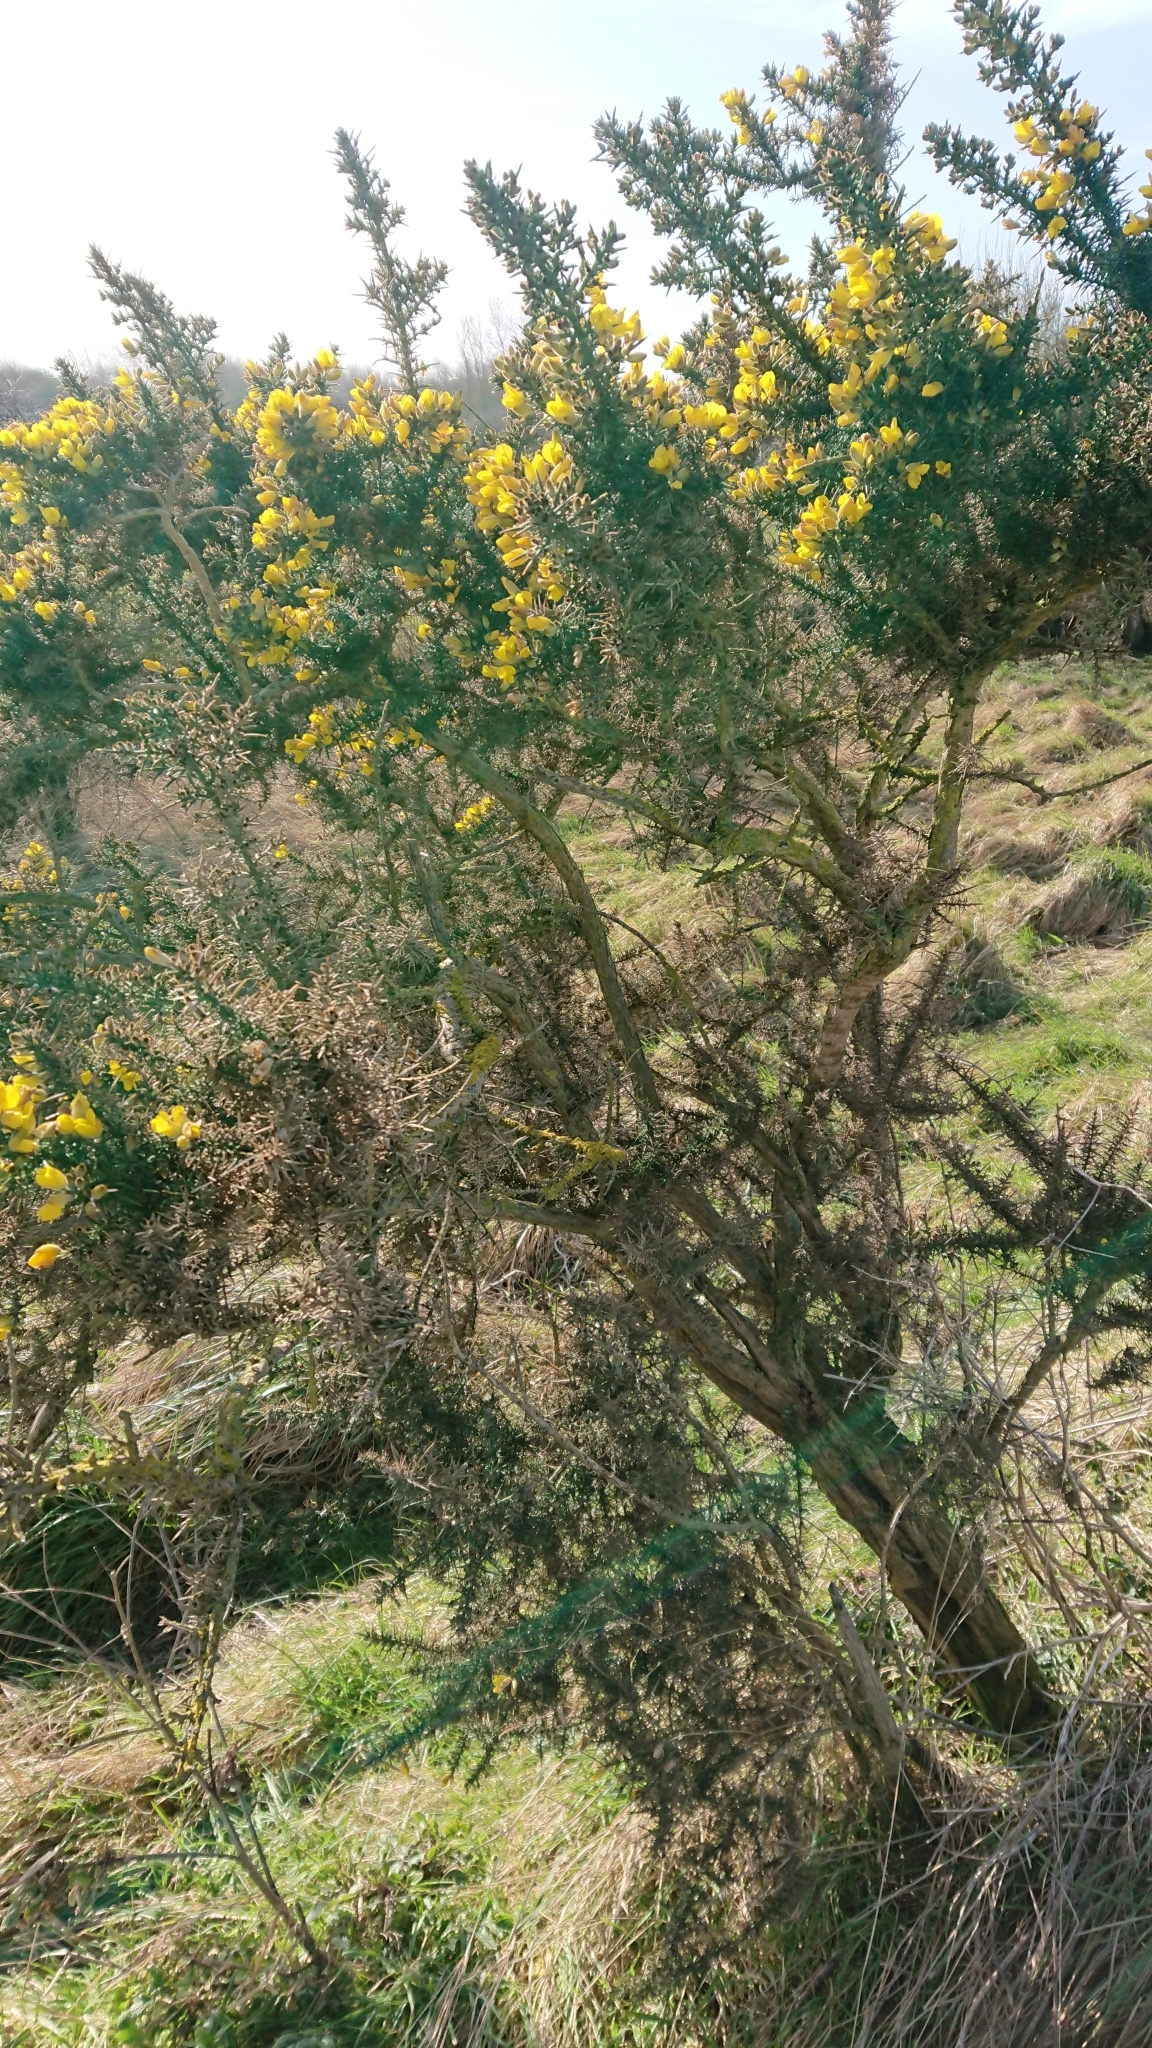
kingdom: Plantae
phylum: Tracheophyta
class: Magnoliopsida
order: Fabales
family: Fabaceae
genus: Ulex
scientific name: Ulex europaeus
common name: Common gorse
